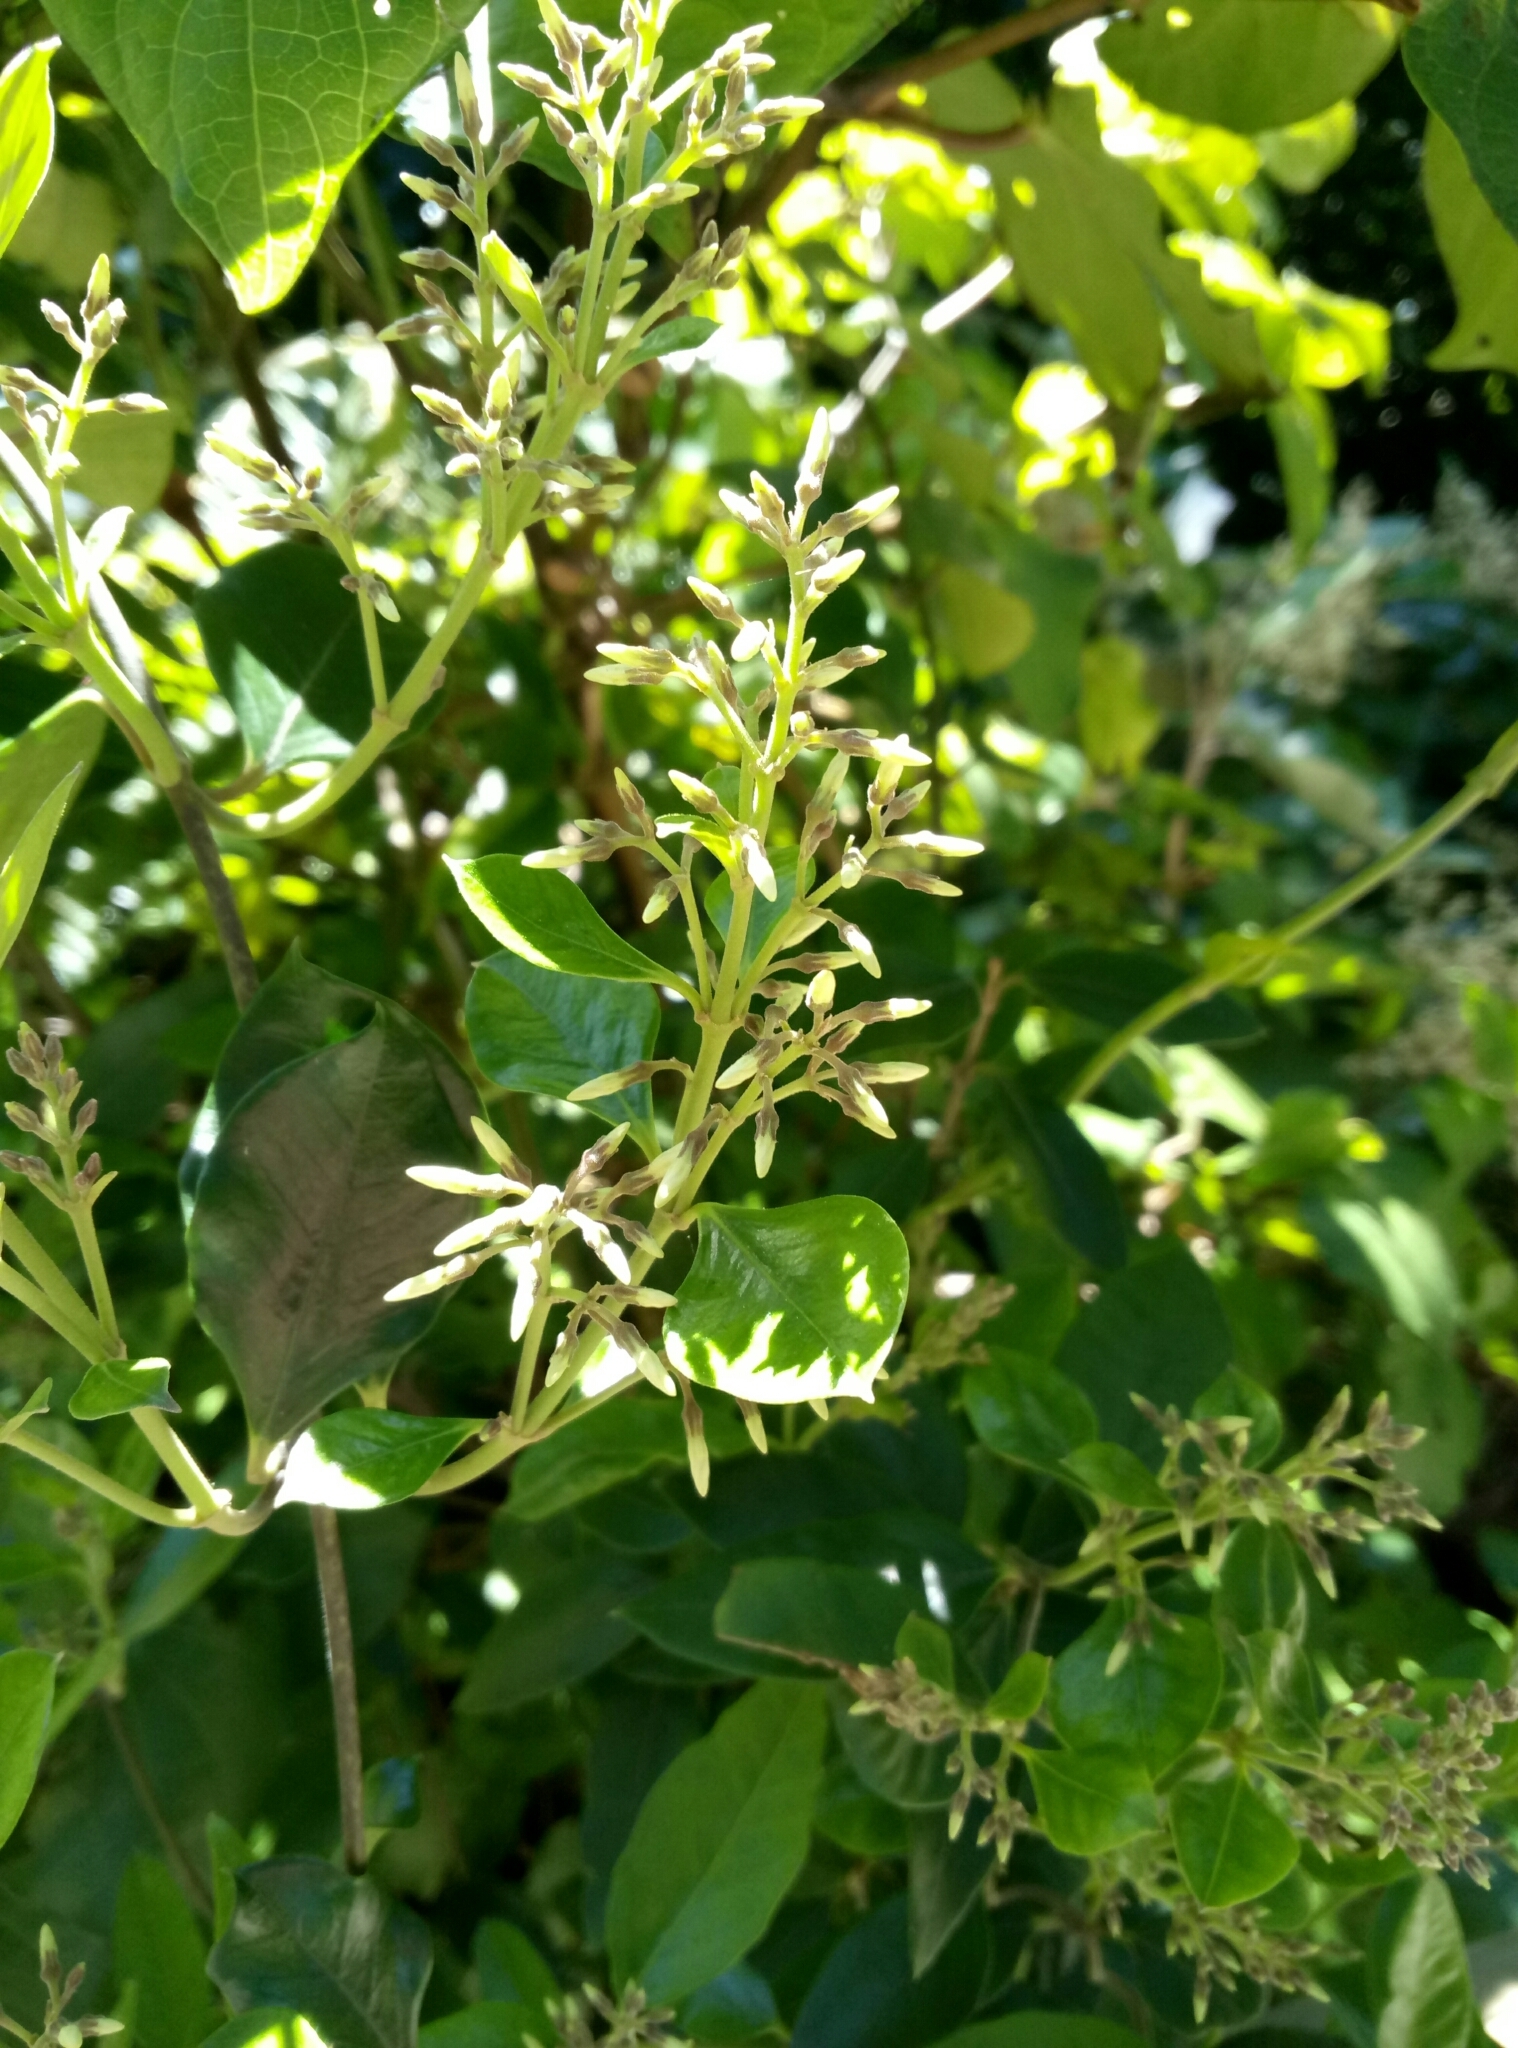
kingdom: Plantae
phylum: Tracheophyta
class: Magnoliopsida
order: Gentianales
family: Apocynaceae
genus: Parsonsia
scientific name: Parsonsia heterophylla
